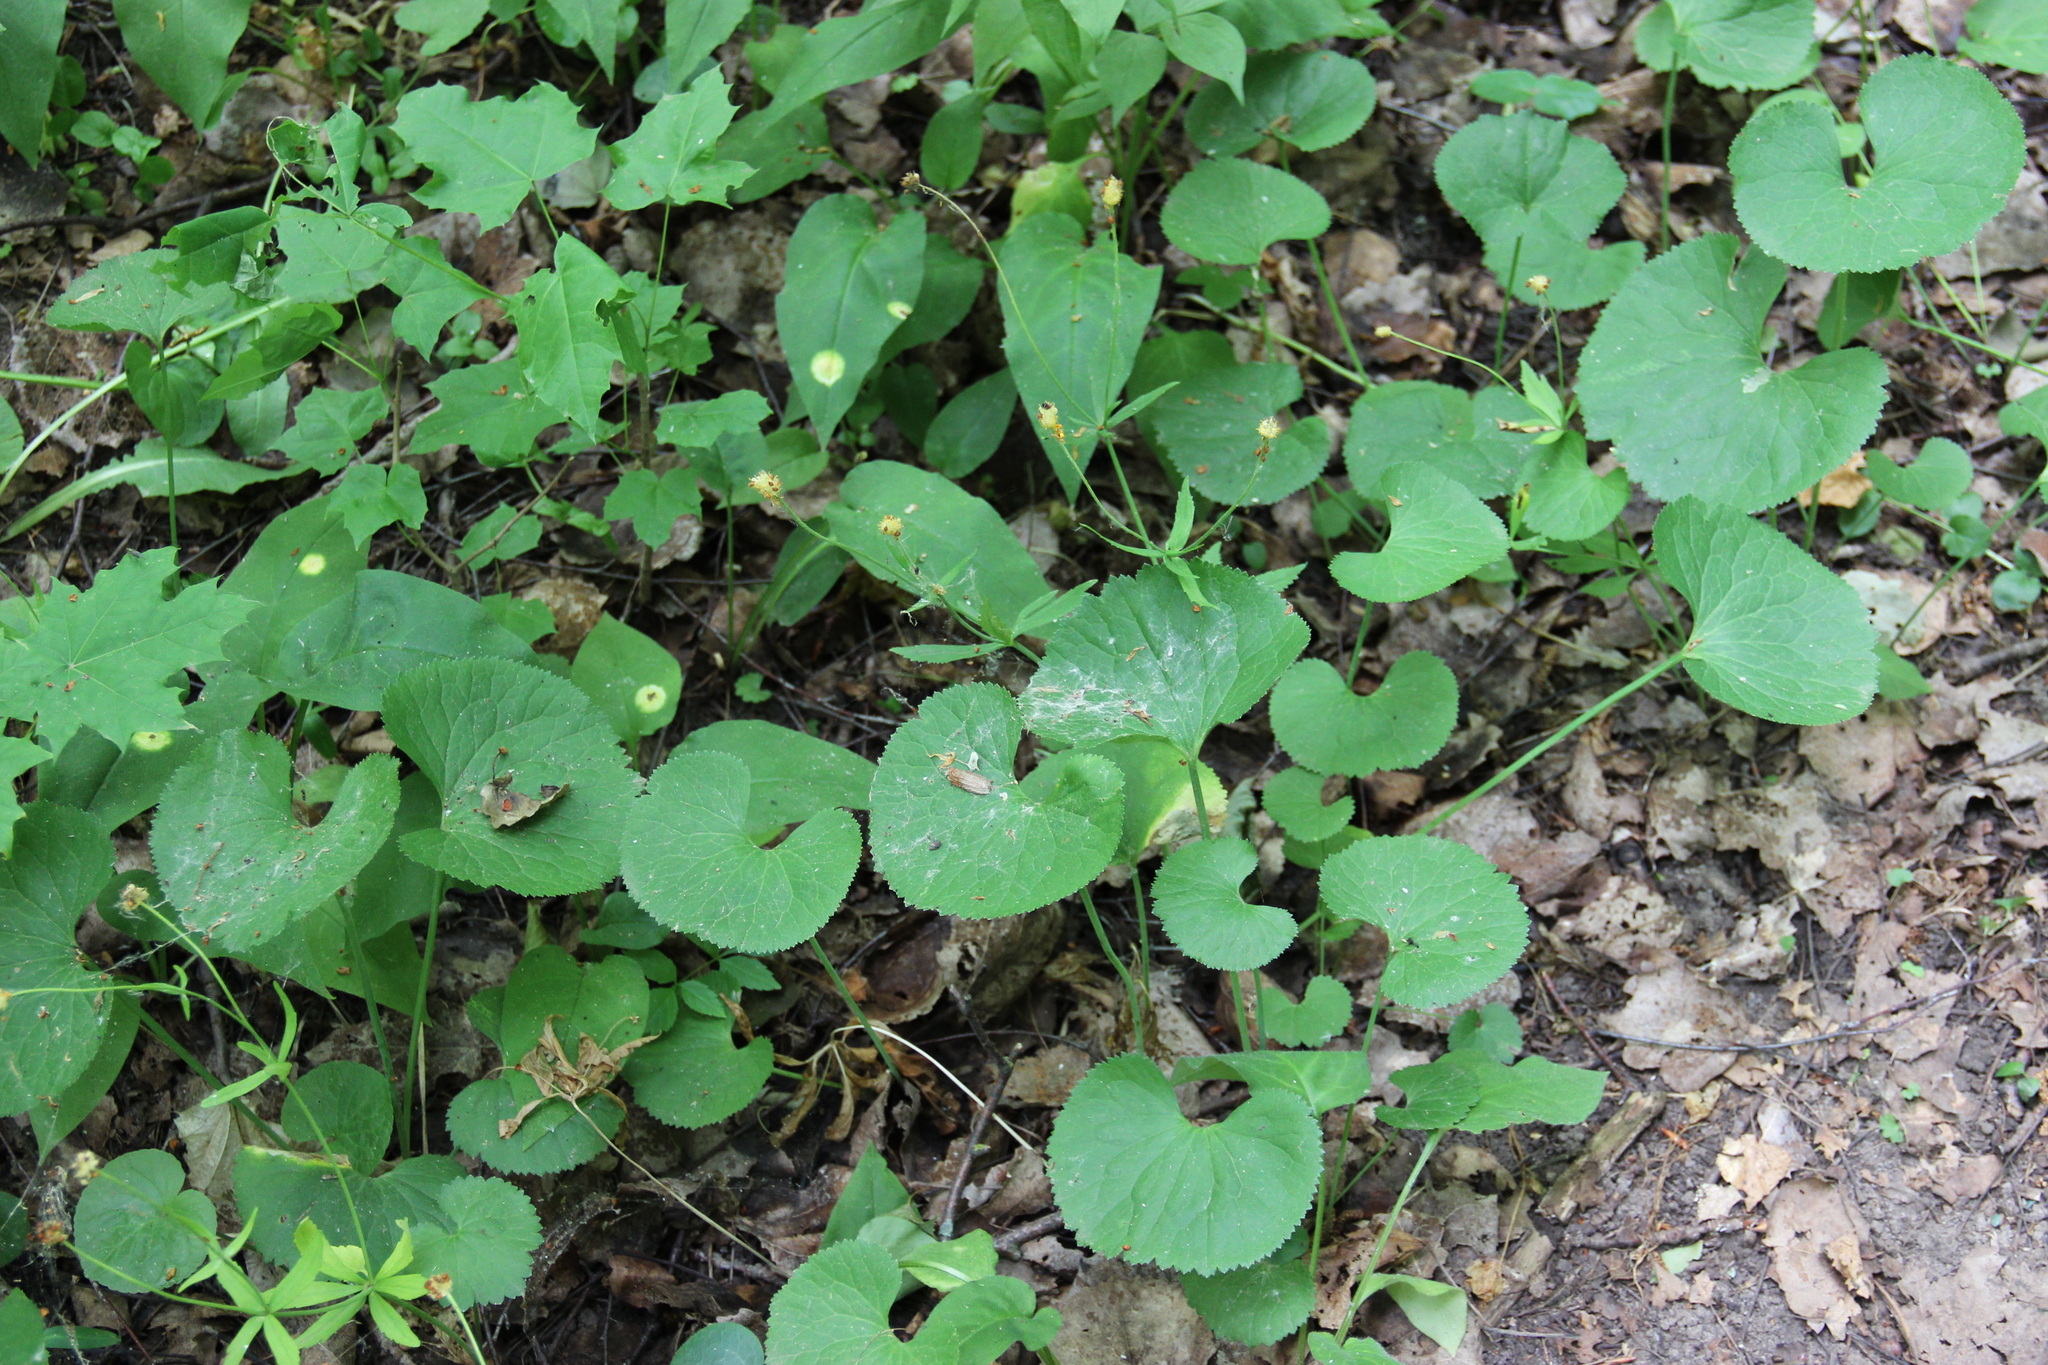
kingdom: Plantae
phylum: Tracheophyta
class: Magnoliopsida
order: Ranunculales
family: Ranunculaceae
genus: Ranunculus
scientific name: Ranunculus cassubicus
